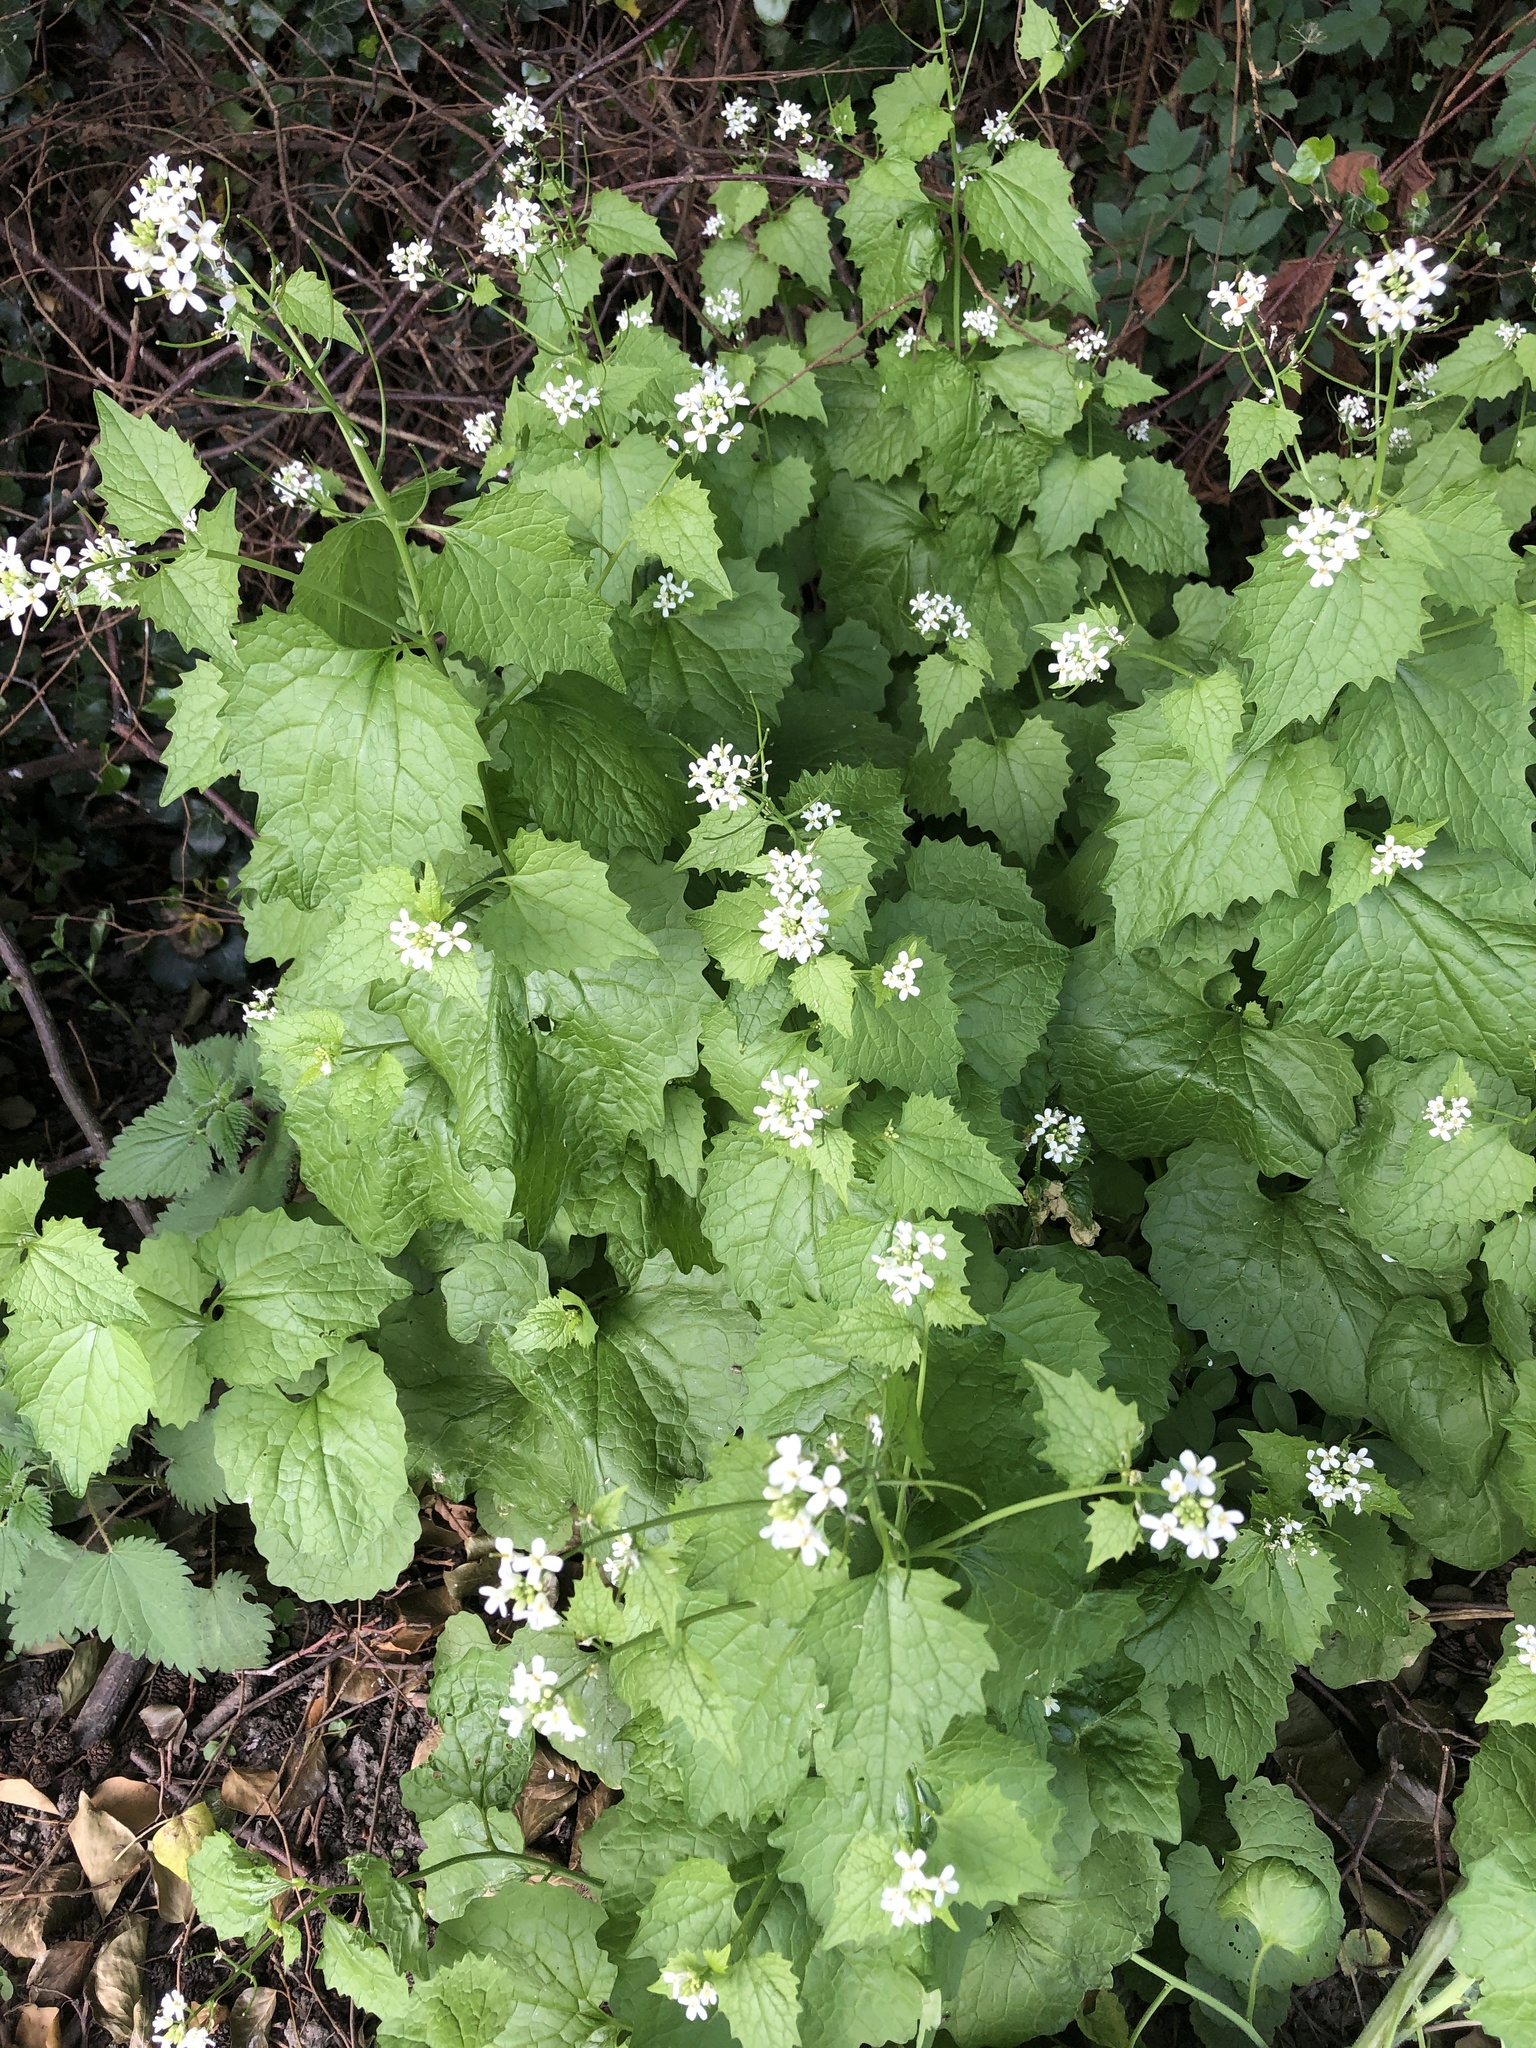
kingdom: Plantae
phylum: Tracheophyta
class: Magnoliopsida
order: Brassicales
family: Brassicaceae
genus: Alliaria
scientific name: Alliaria petiolata
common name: Garlic mustard
